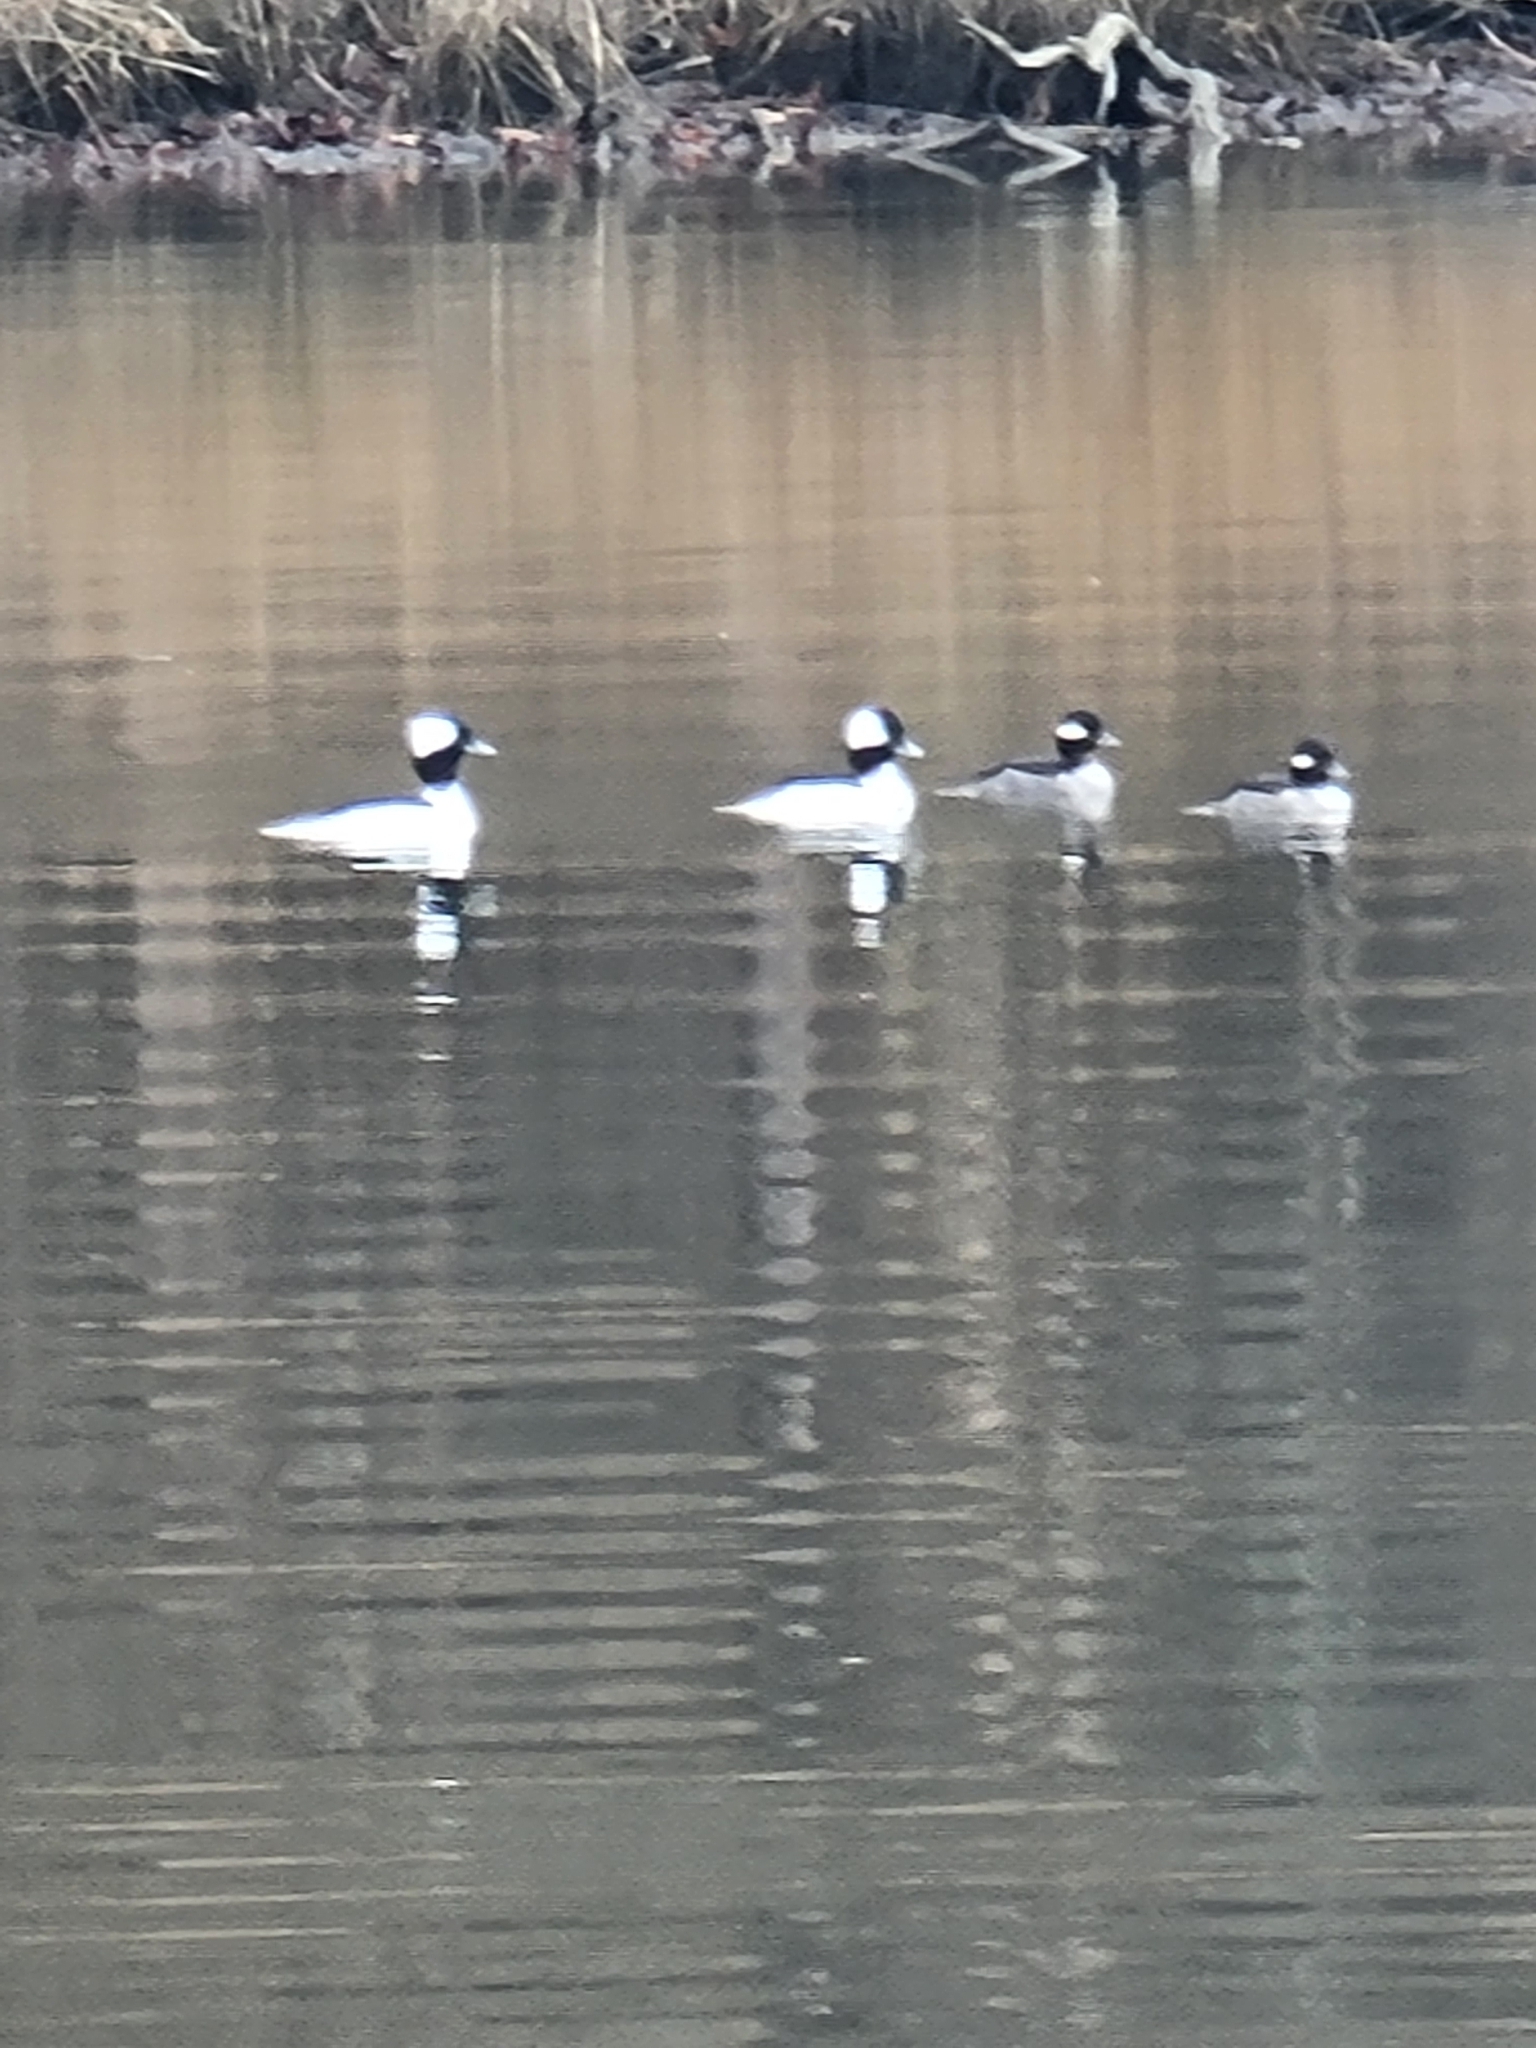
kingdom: Animalia
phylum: Chordata
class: Aves
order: Anseriformes
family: Anatidae
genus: Bucephala
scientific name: Bucephala albeola
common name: Bufflehead
